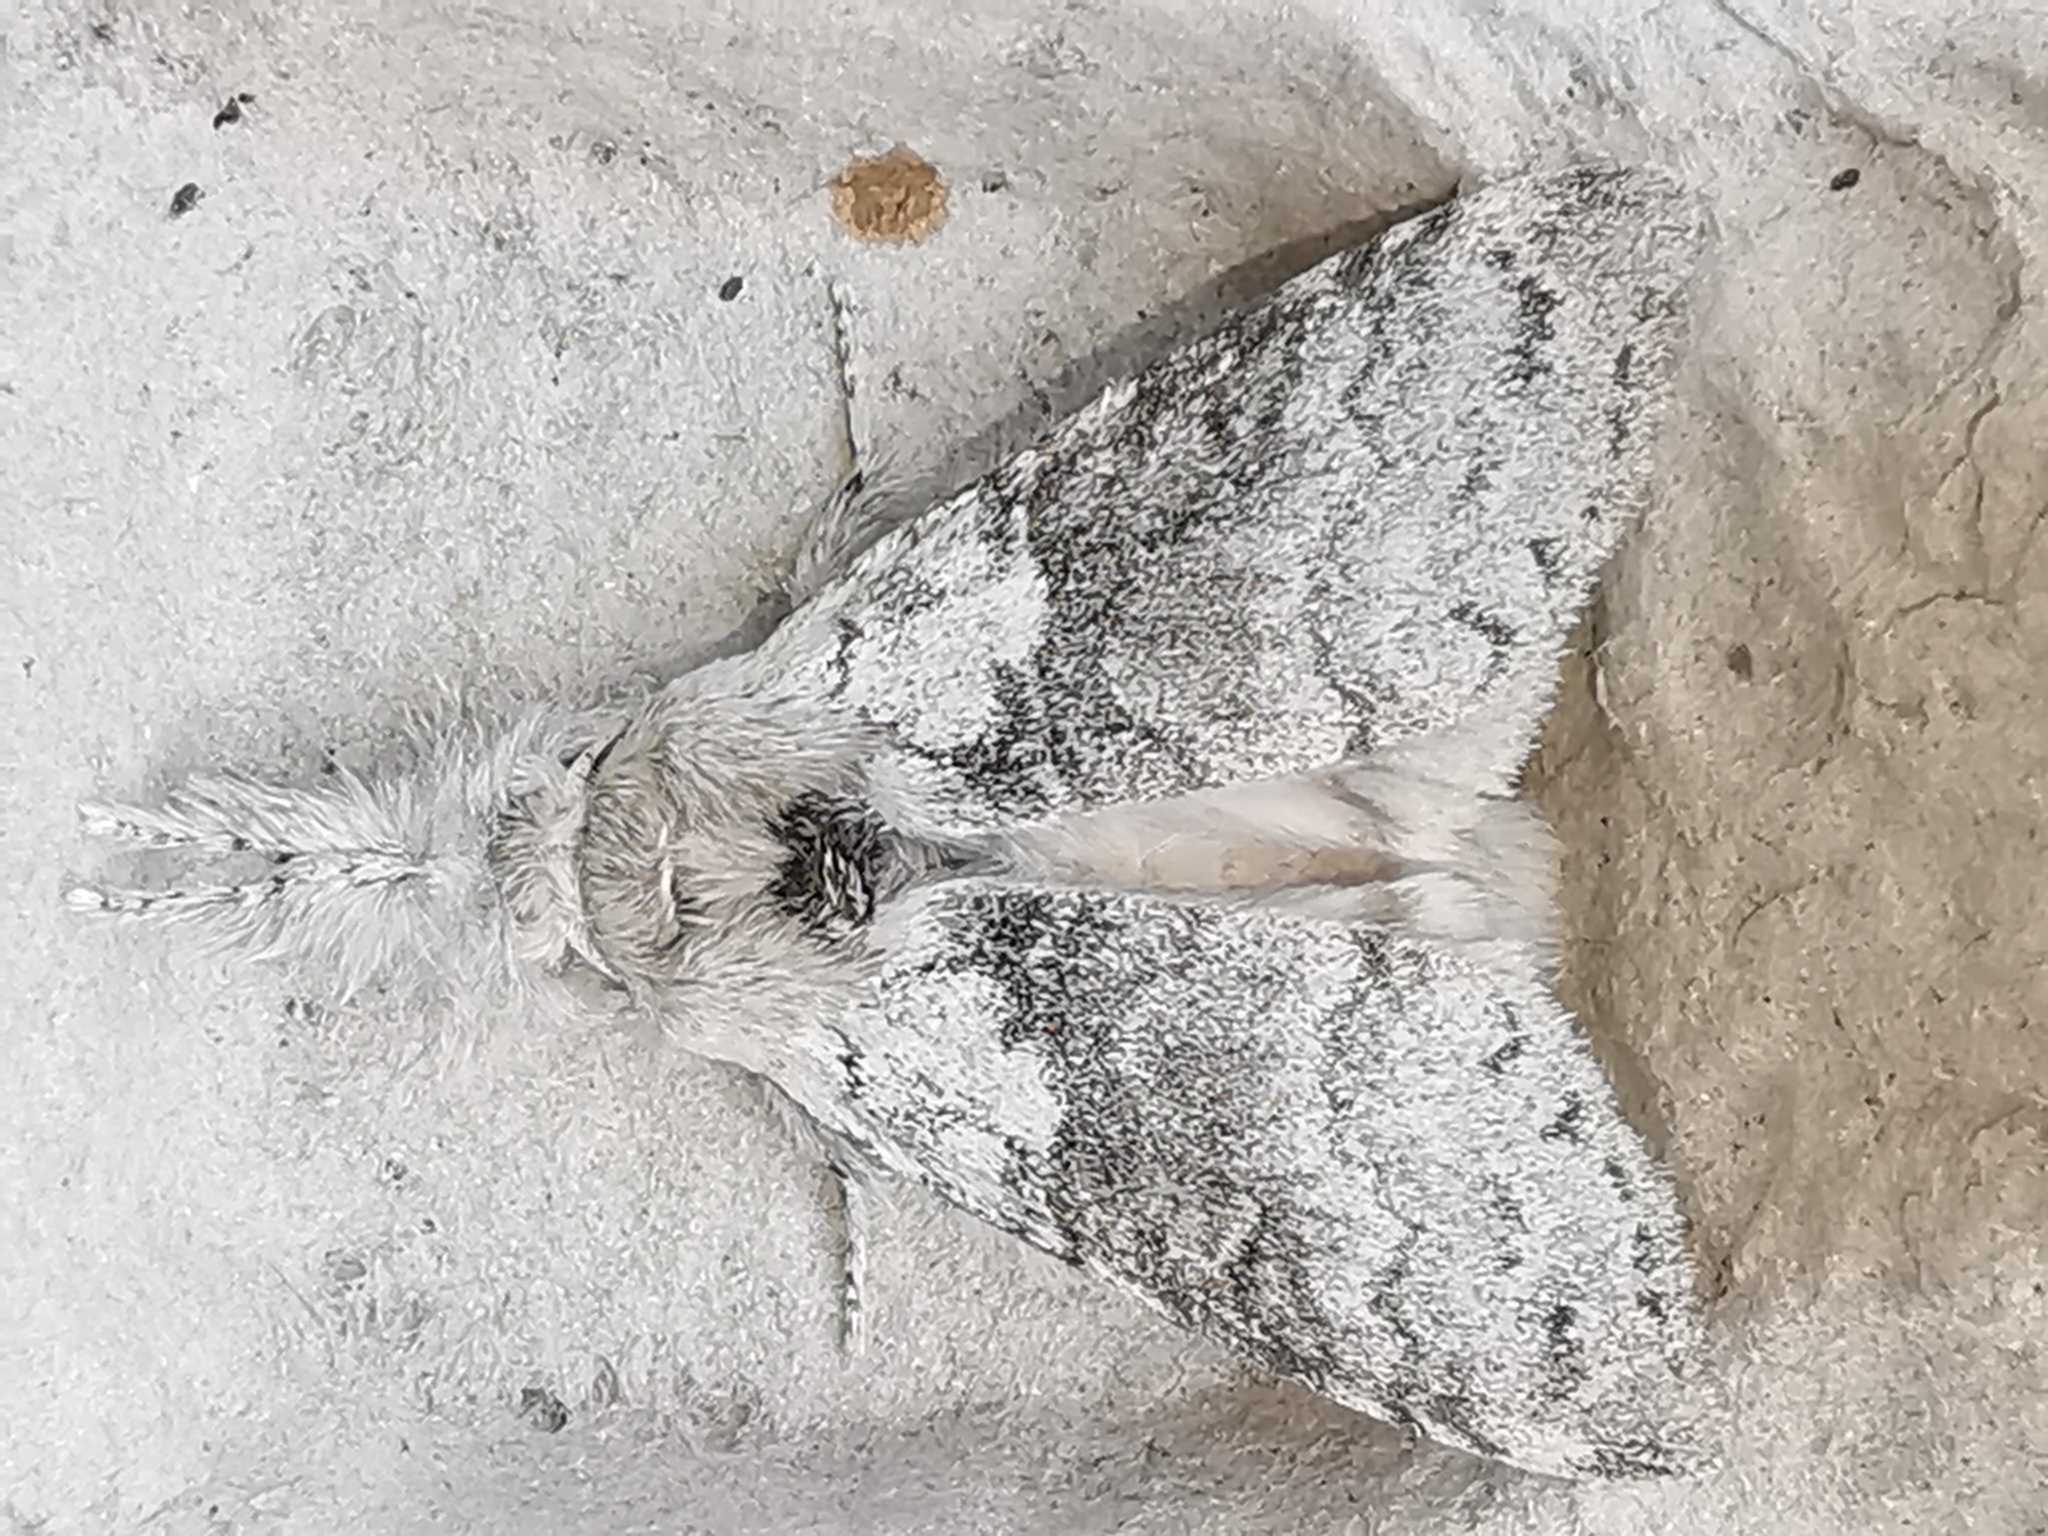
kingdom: Animalia
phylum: Arthropoda
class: Insecta
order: Lepidoptera
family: Erebidae
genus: Calliteara
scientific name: Calliteara pudibunda
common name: Pale tussock
